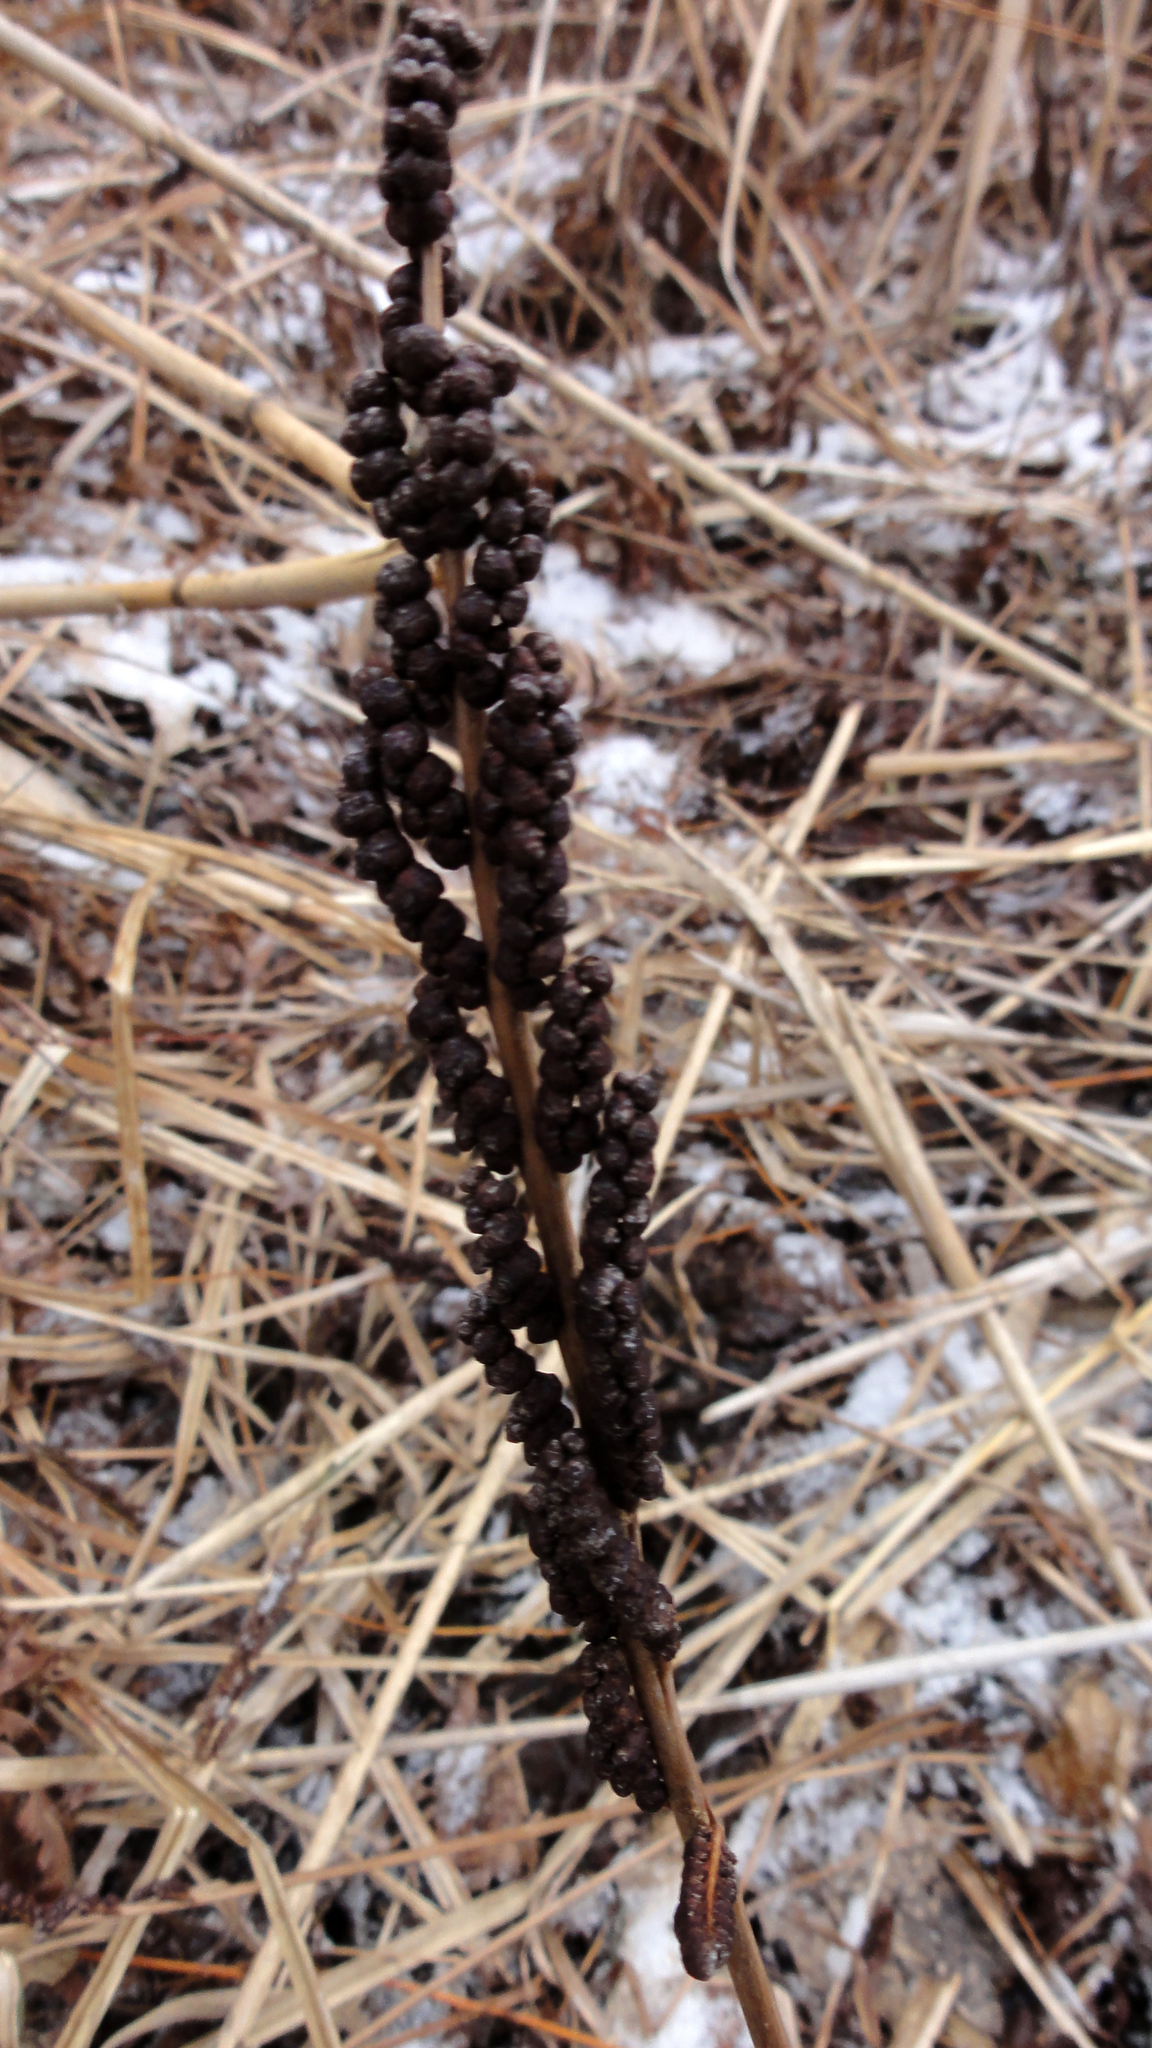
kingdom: Plantae
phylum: Tracheophyta
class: Polypodiopsida
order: Polypodiales
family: Onocleaceae
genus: Onoclea
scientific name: Onoclea sensibilis
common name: Sensitive fern
